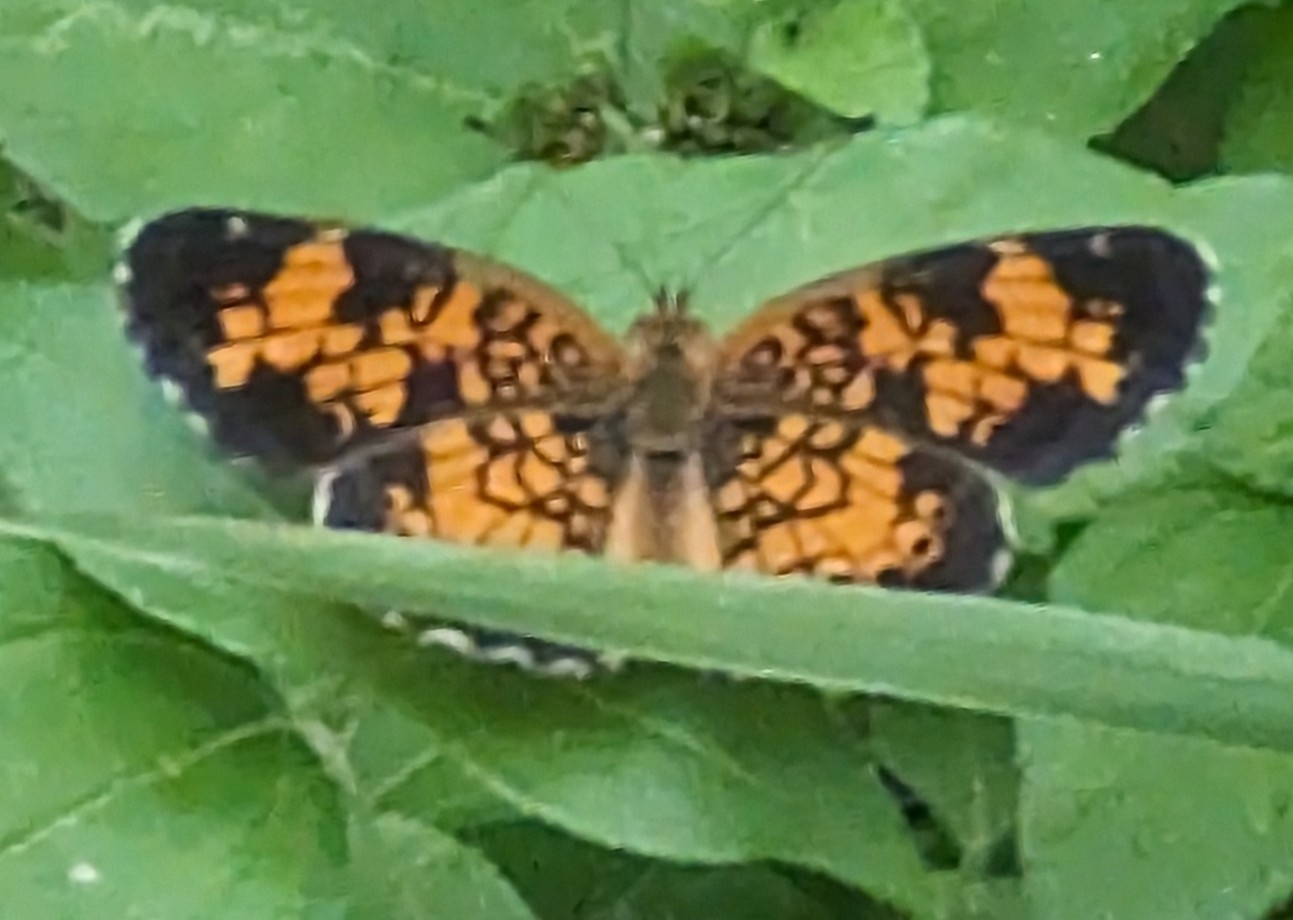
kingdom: Animalia
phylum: Arthropoda
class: Insecta
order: Lepidoptera
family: Nymphalidae
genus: Phyciodes
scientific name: Phyciodes tharos
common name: Pearl crescent
